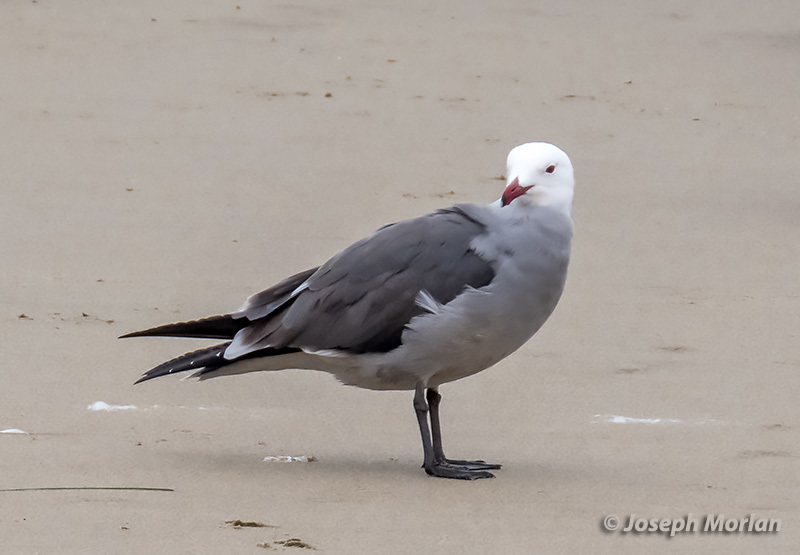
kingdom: Animalia
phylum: Chordata
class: Aves
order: Charadriiformes
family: Laridae
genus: Larus
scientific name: Larus heermanni
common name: Heermann's gull
